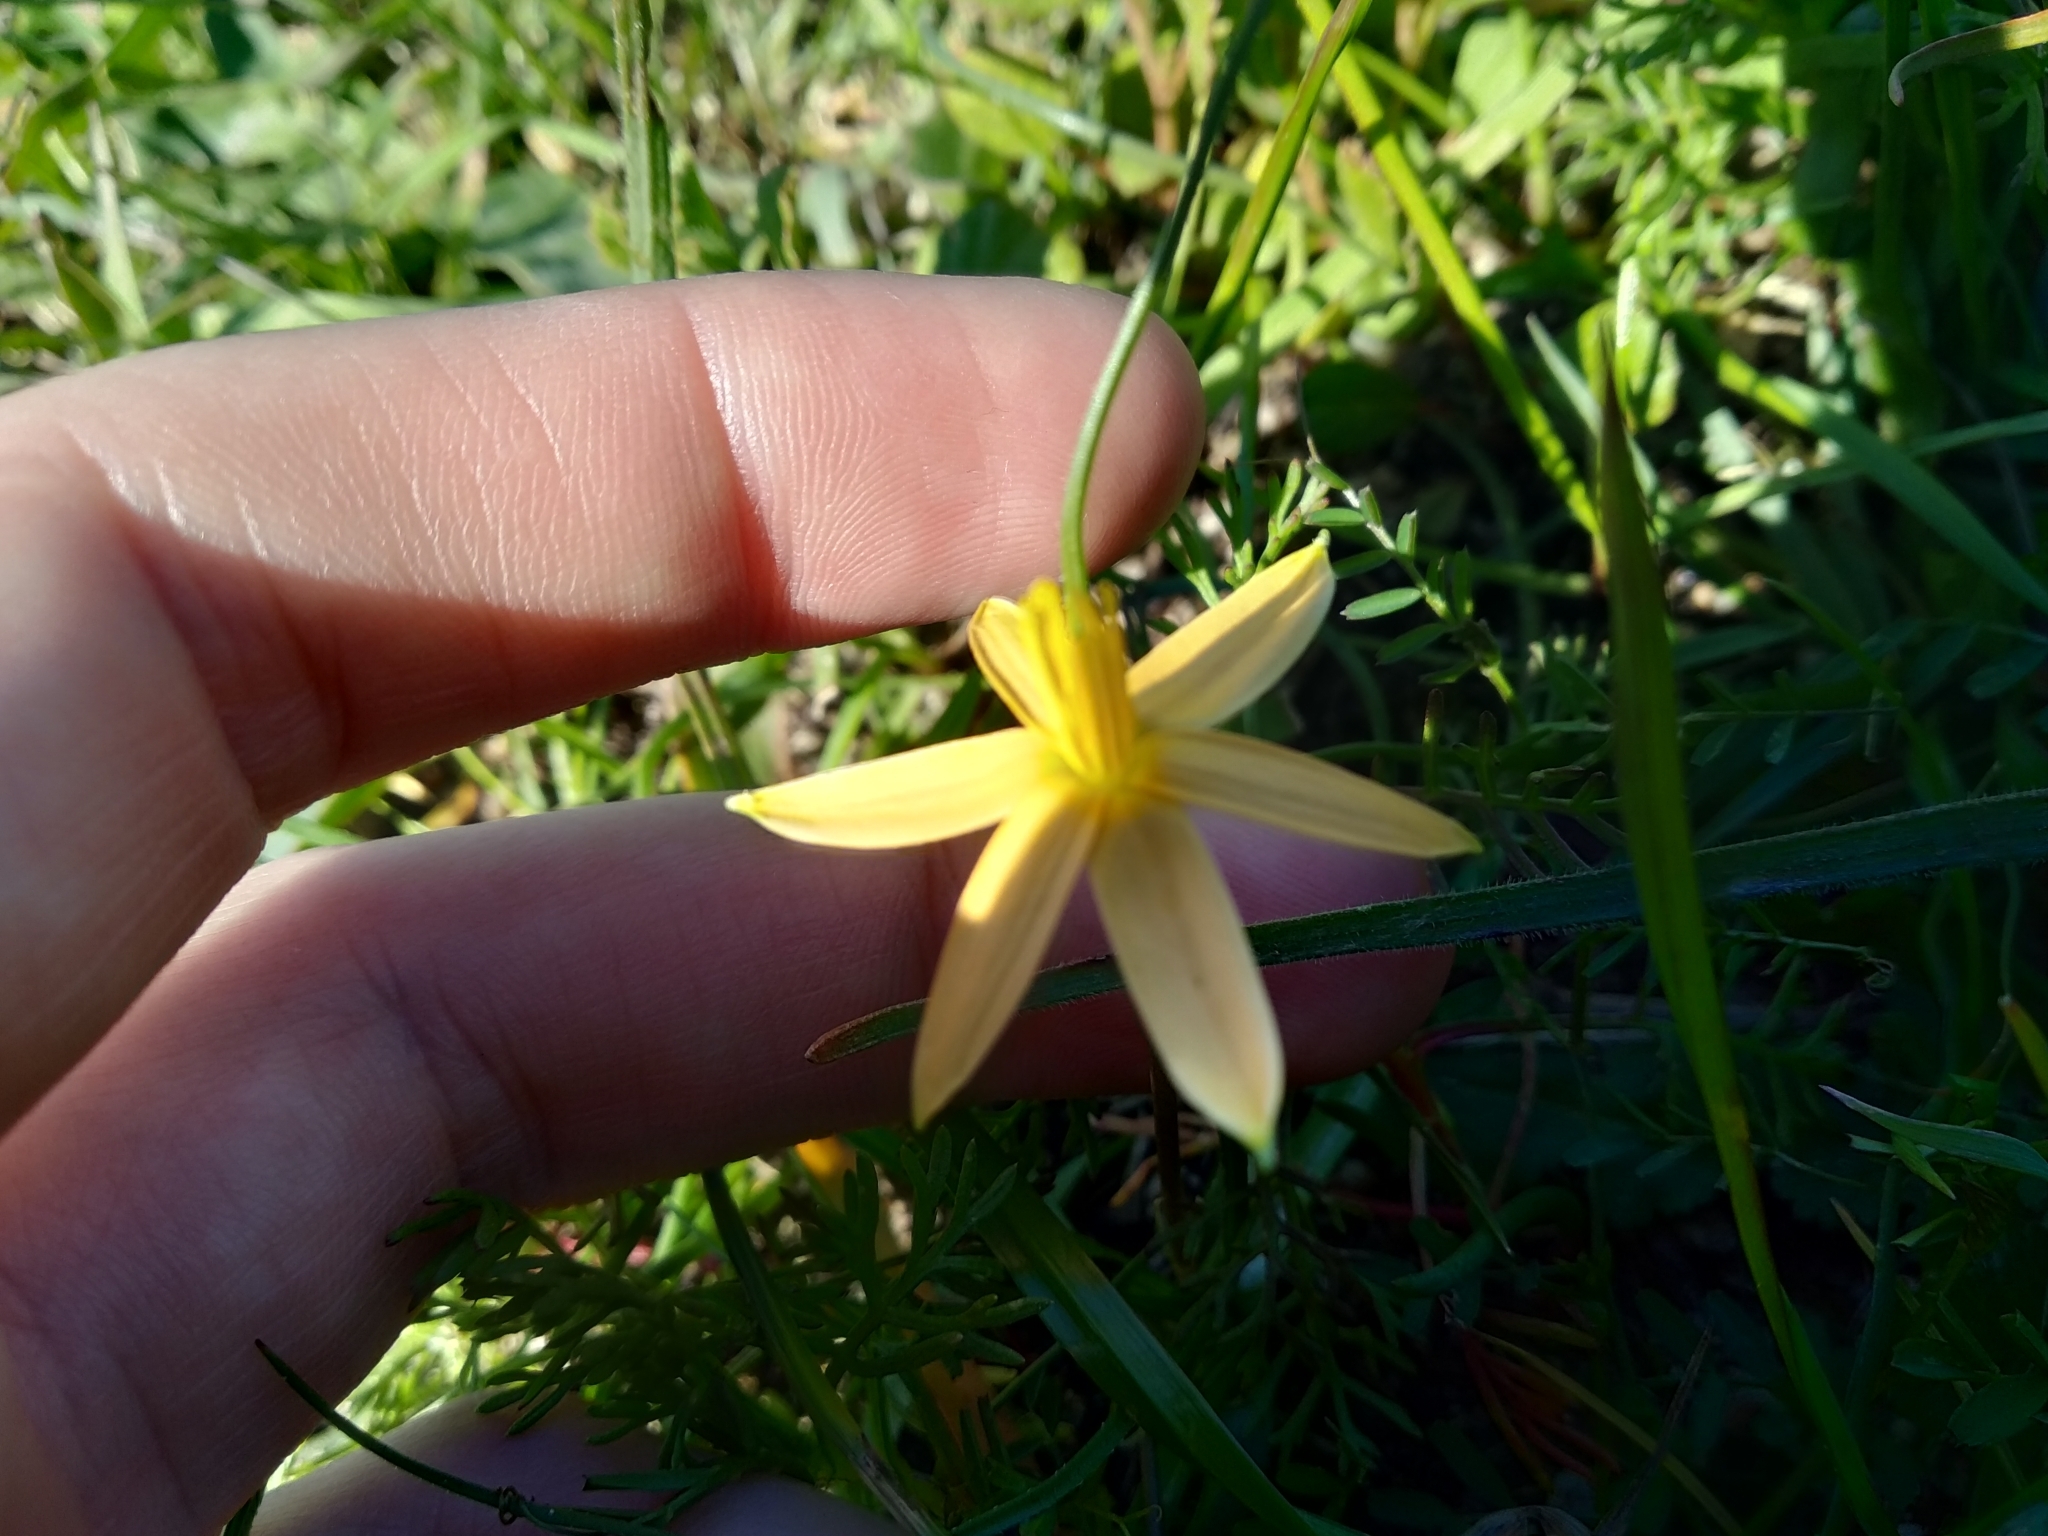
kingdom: Plantae
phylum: Tracheophyta
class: Liliopsida
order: Asparagales
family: Hypoxidaceae
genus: Pauridia
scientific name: Pauridia serrata
